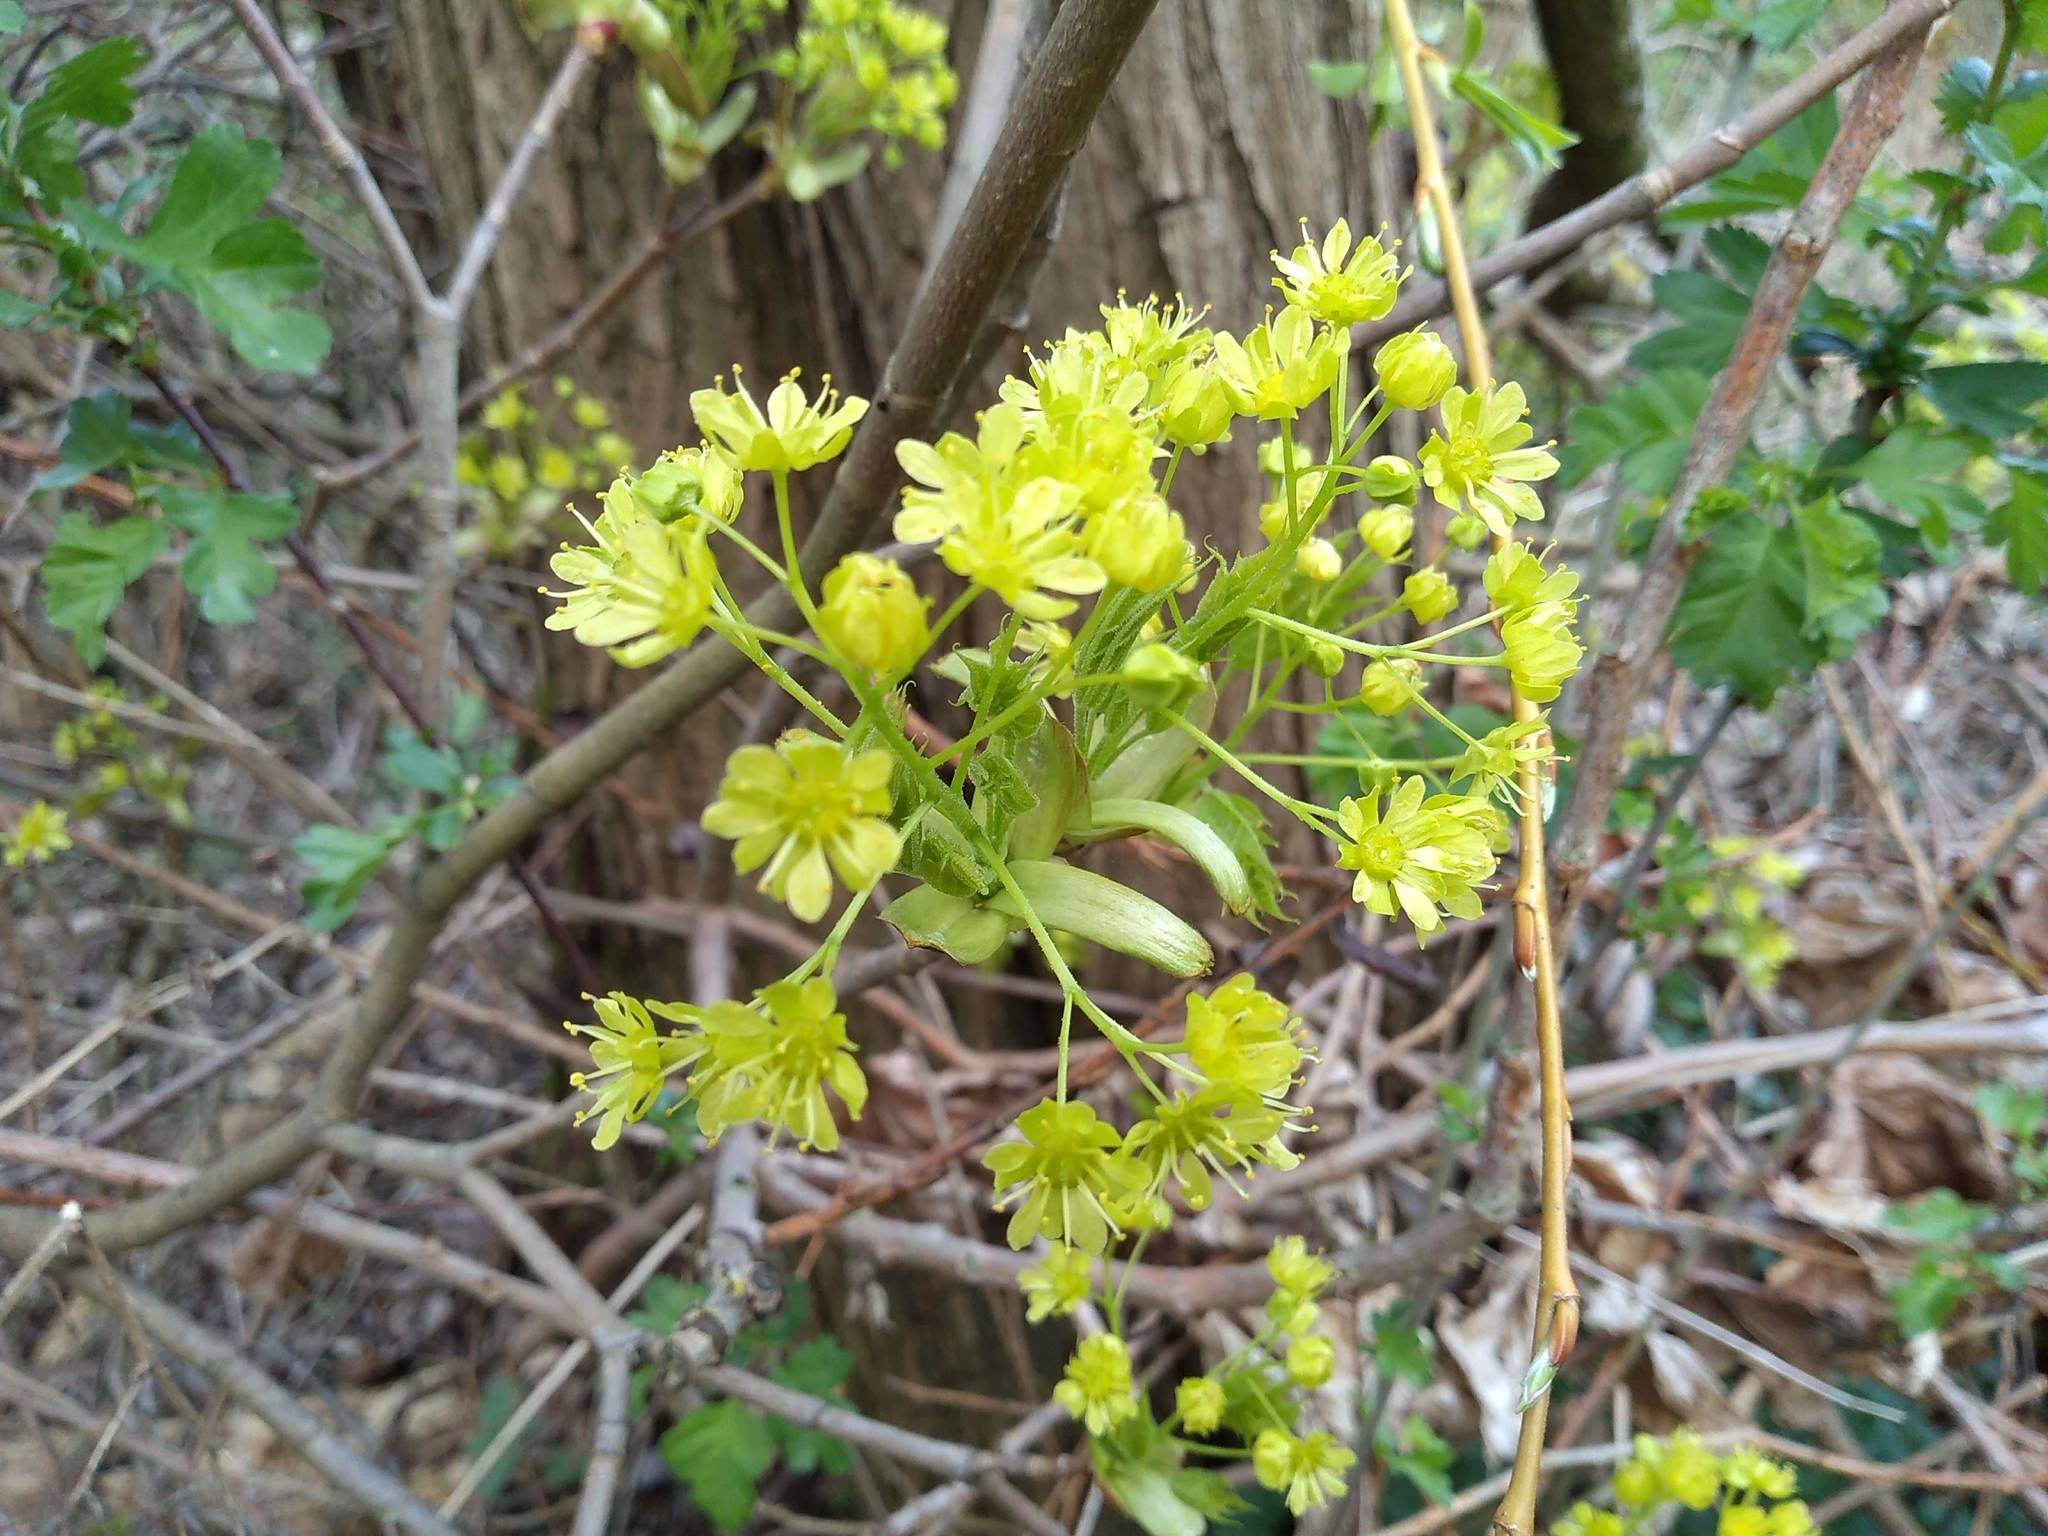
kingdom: Plantae
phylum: Tracheophyta
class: Magnoliopsida
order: Sapindales
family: Sapindaceae
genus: Acer
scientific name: Acer platanoides
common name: Norway maple
